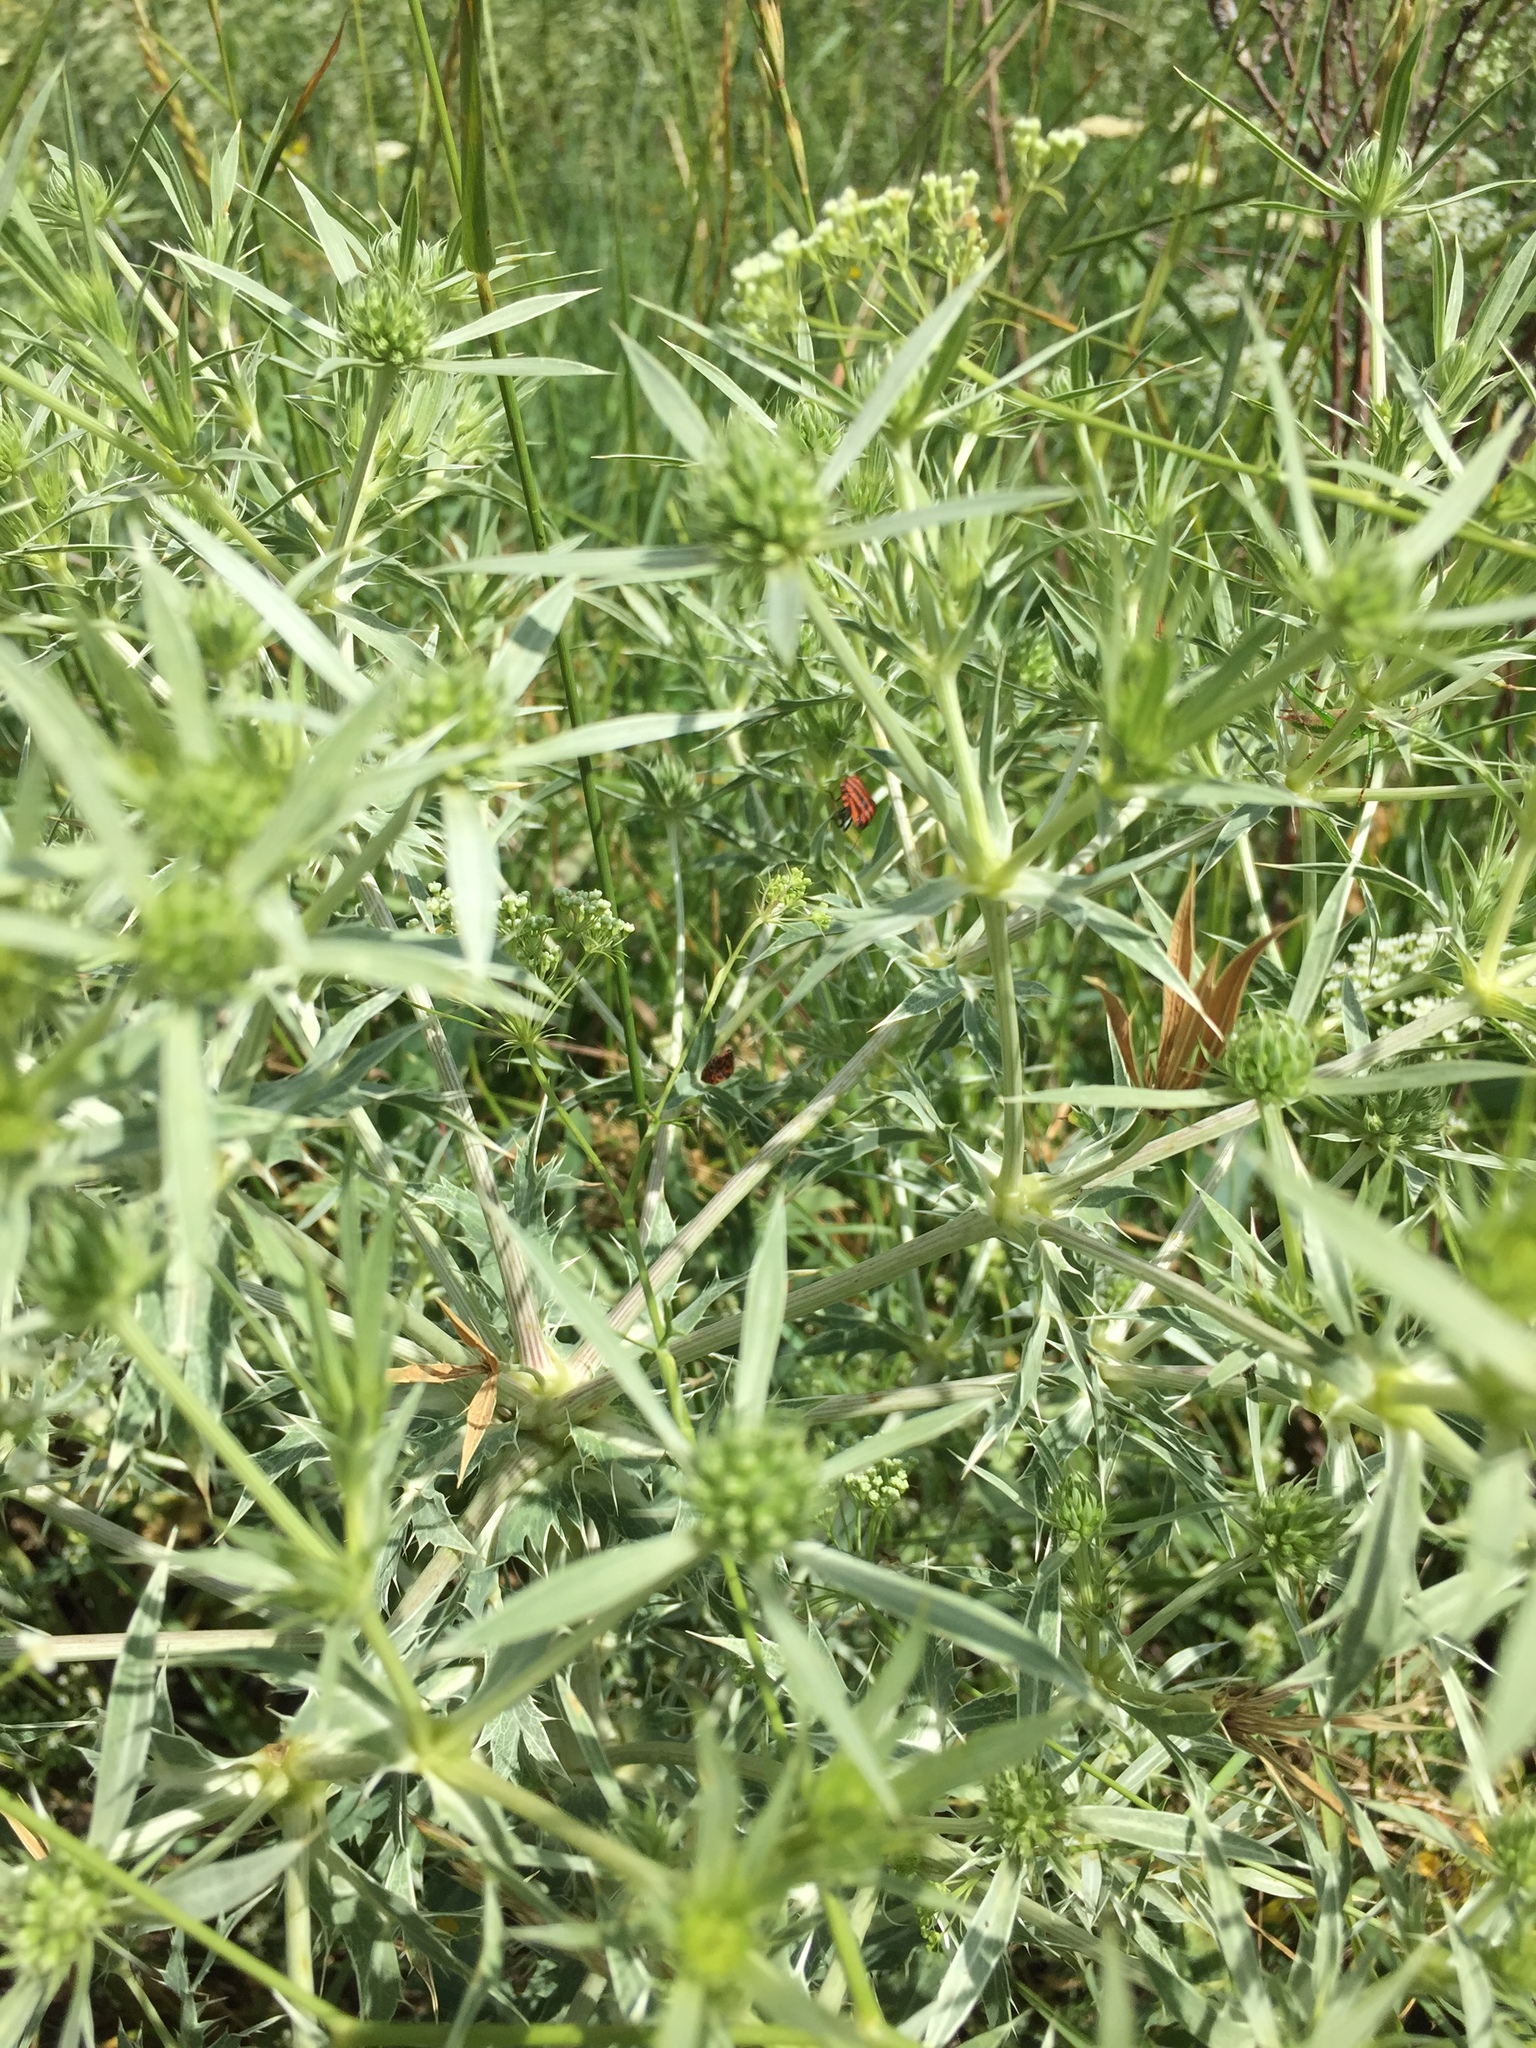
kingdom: Plantae
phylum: Tracheophyta
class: Magnoliopsida
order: Apiales
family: Apiaceae
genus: Eryngium
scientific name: Eryngium campestre
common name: Field eryngo
